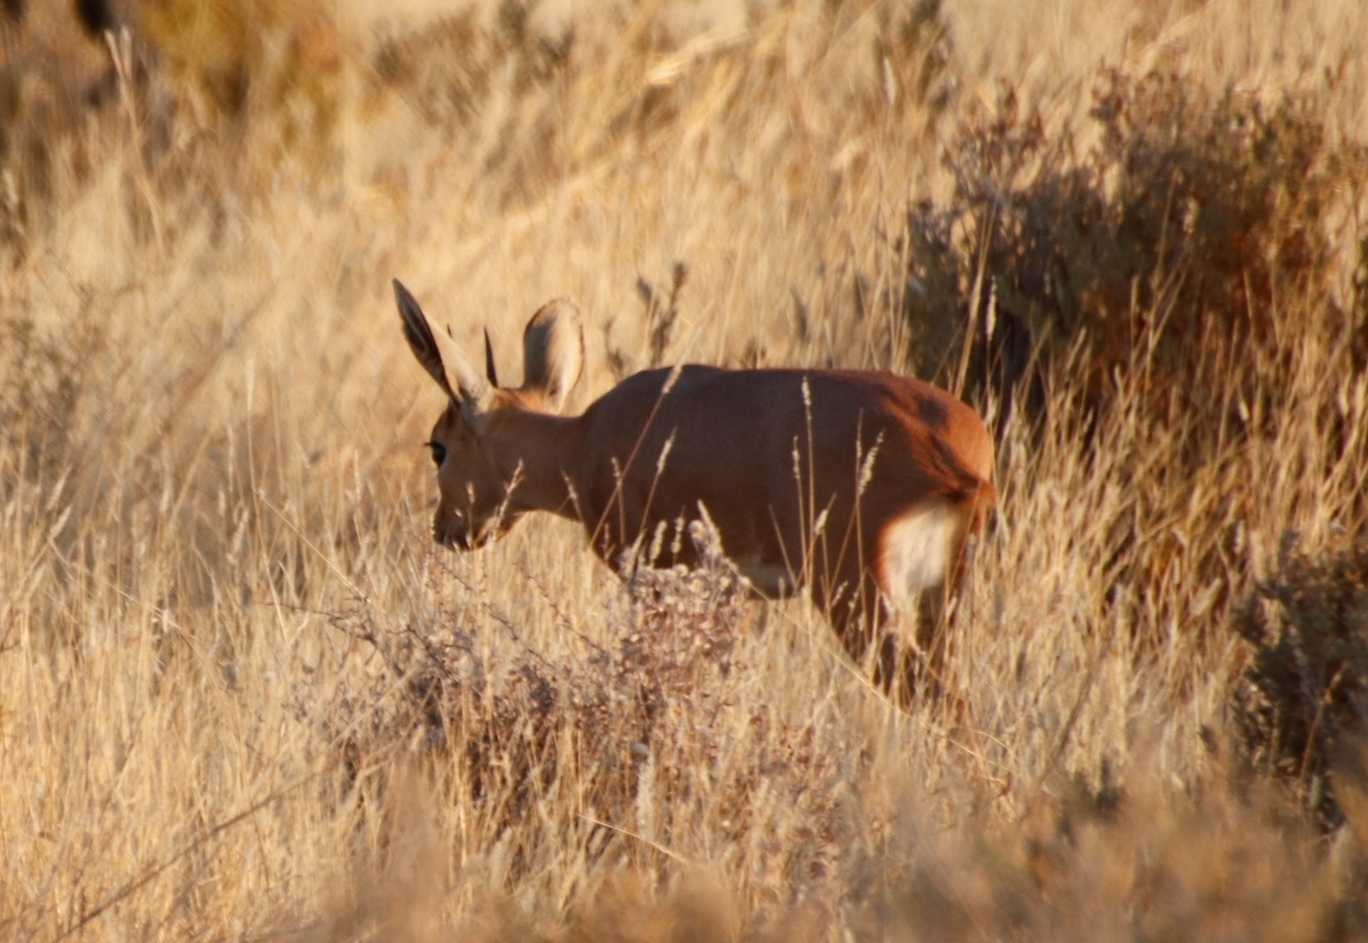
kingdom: Animalia
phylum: Chordata
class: Mammalia
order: Artiodactyla
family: Bovidae
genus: Raphicerus
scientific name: Raphicerus campestris
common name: Steenbok
